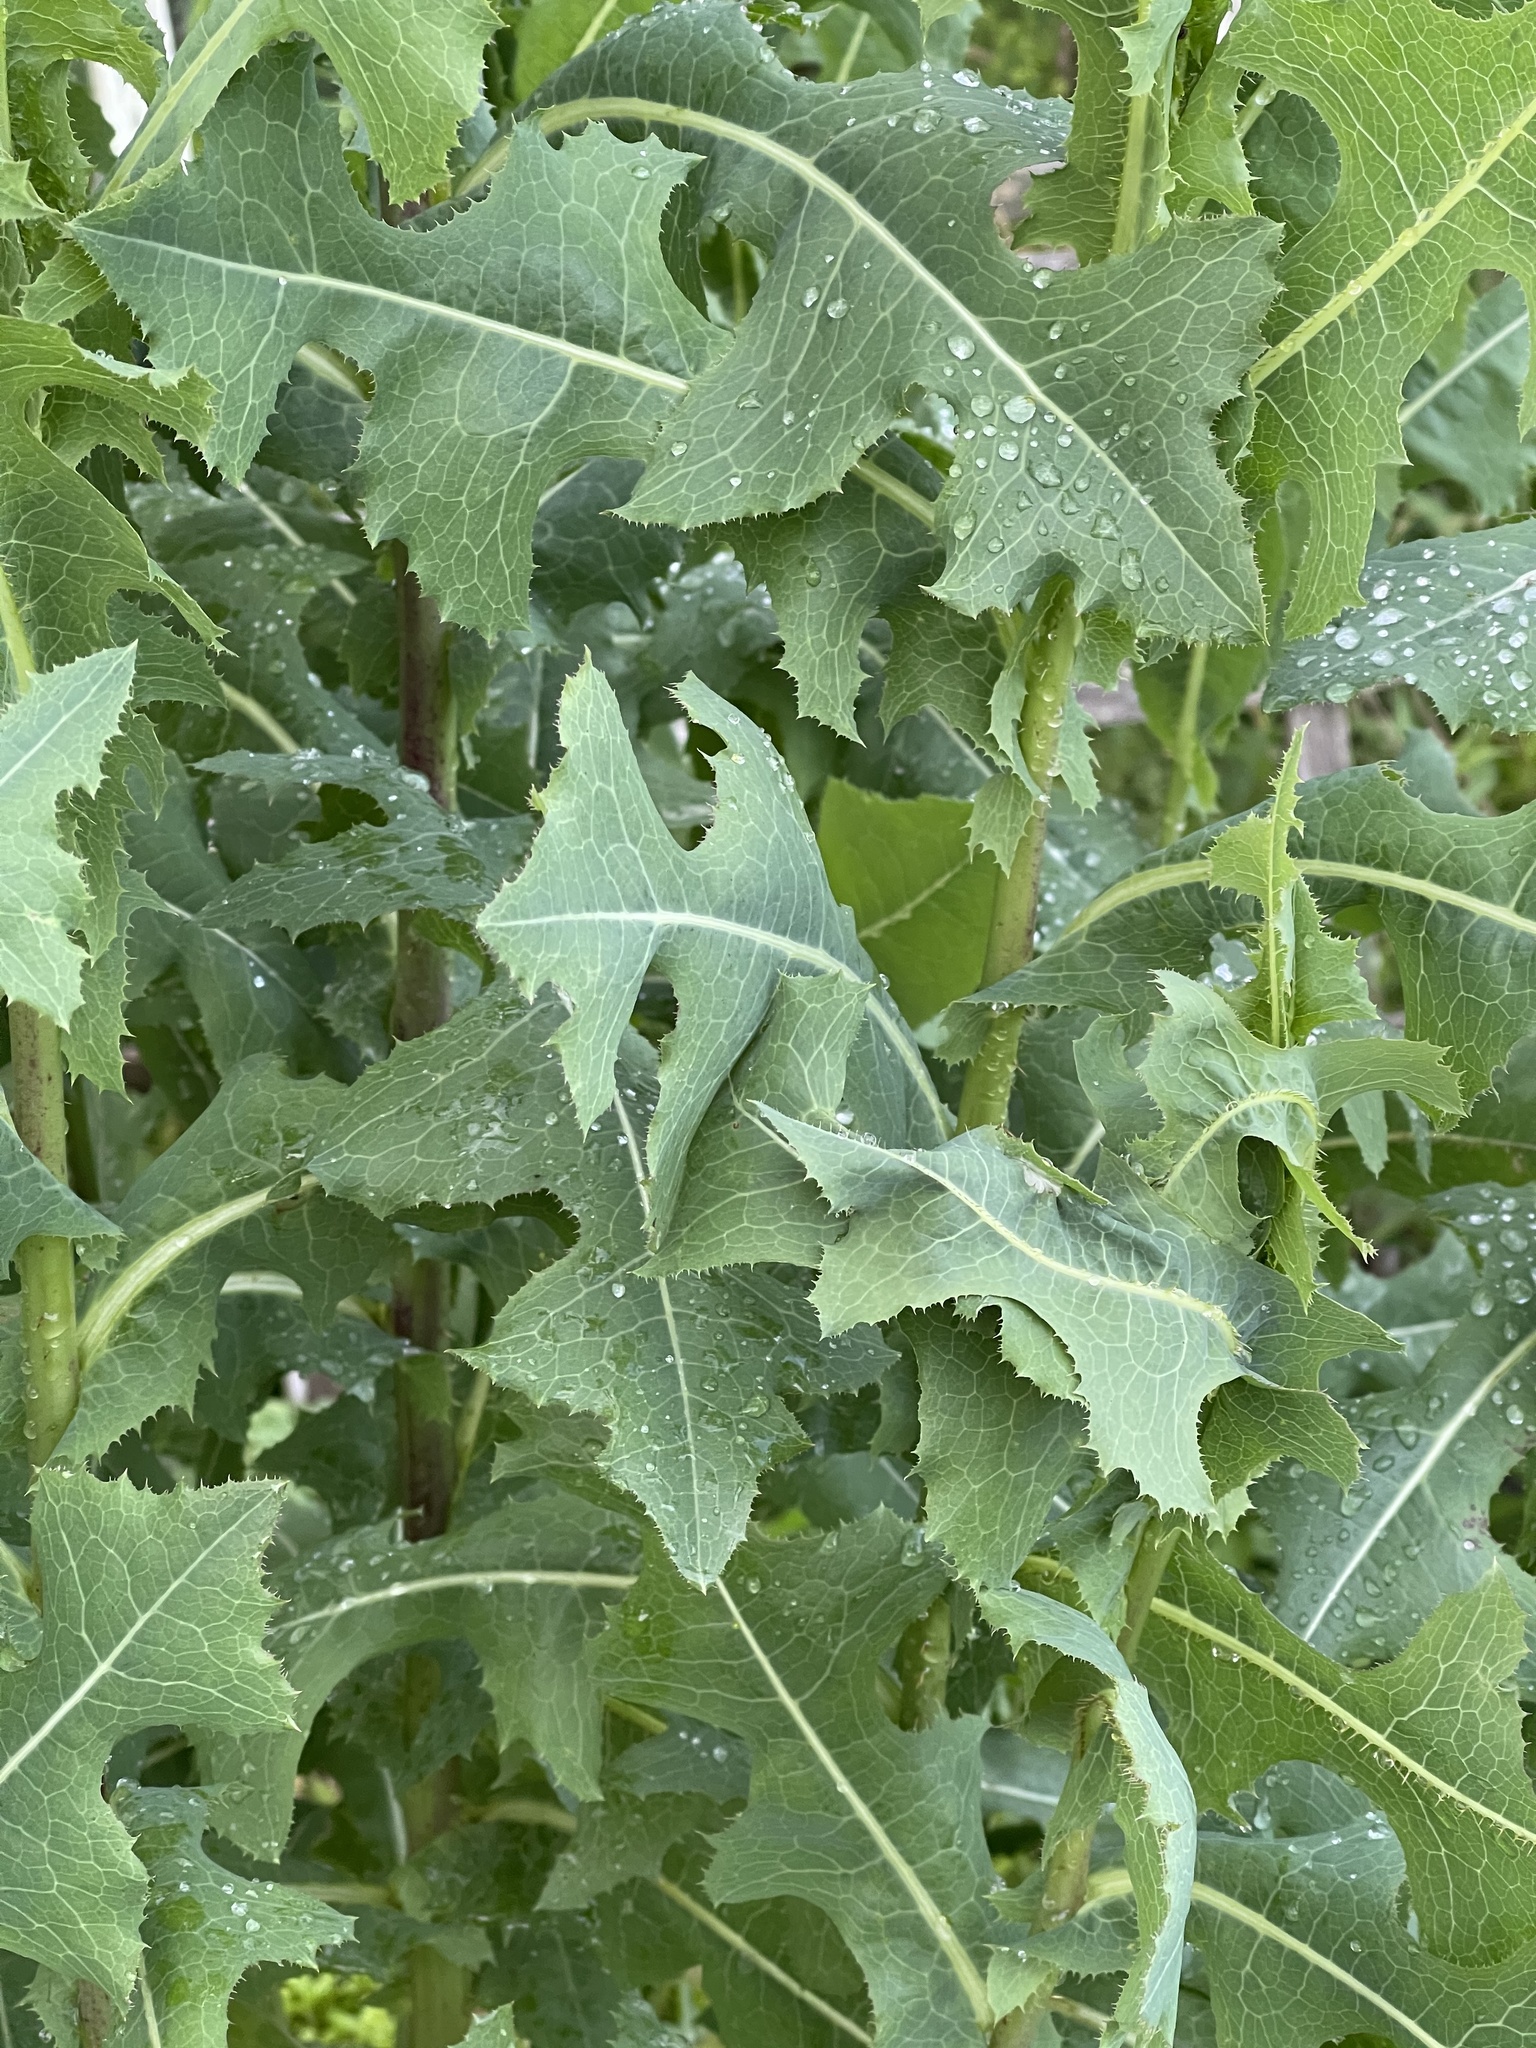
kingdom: Plantae
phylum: Tracheophyta
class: Magnoliopsida
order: Asterales
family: Asteraceae
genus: Lactuca
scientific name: Lactuca serriola
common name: Prickly lettuce
